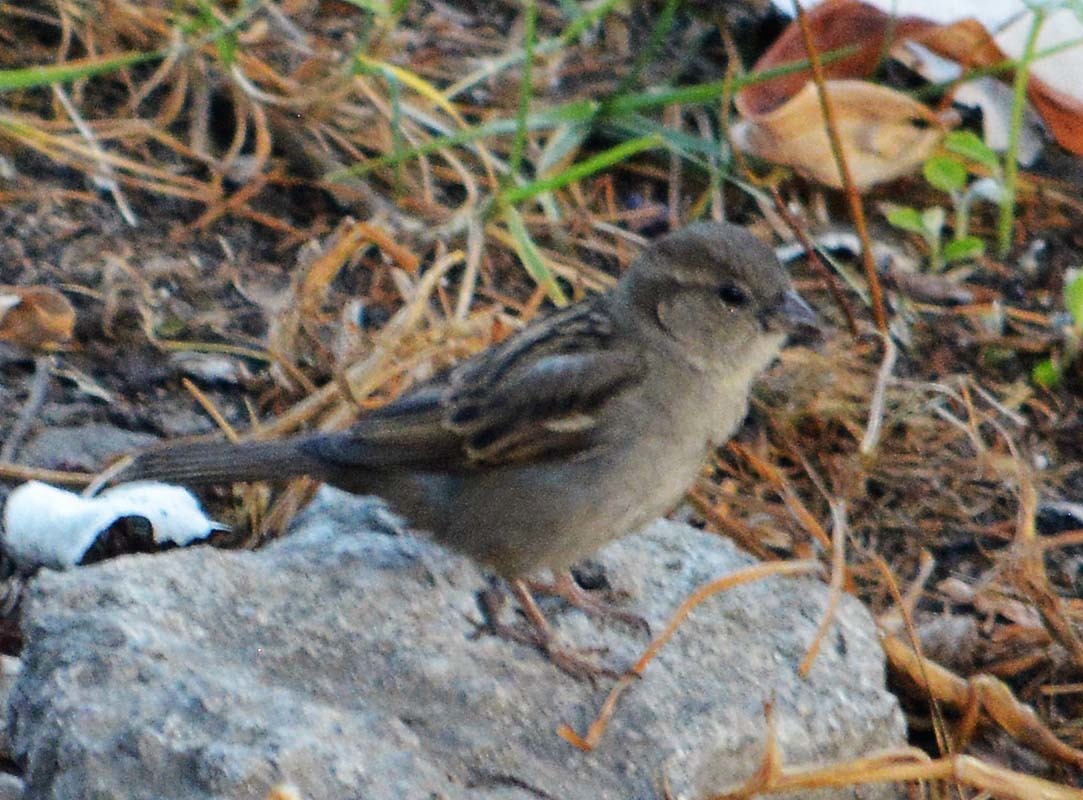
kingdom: Animalia
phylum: Chordata
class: Aves
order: Passeriformes
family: Passeridae
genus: Passer
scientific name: Passer domesticus
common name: House sparrow
